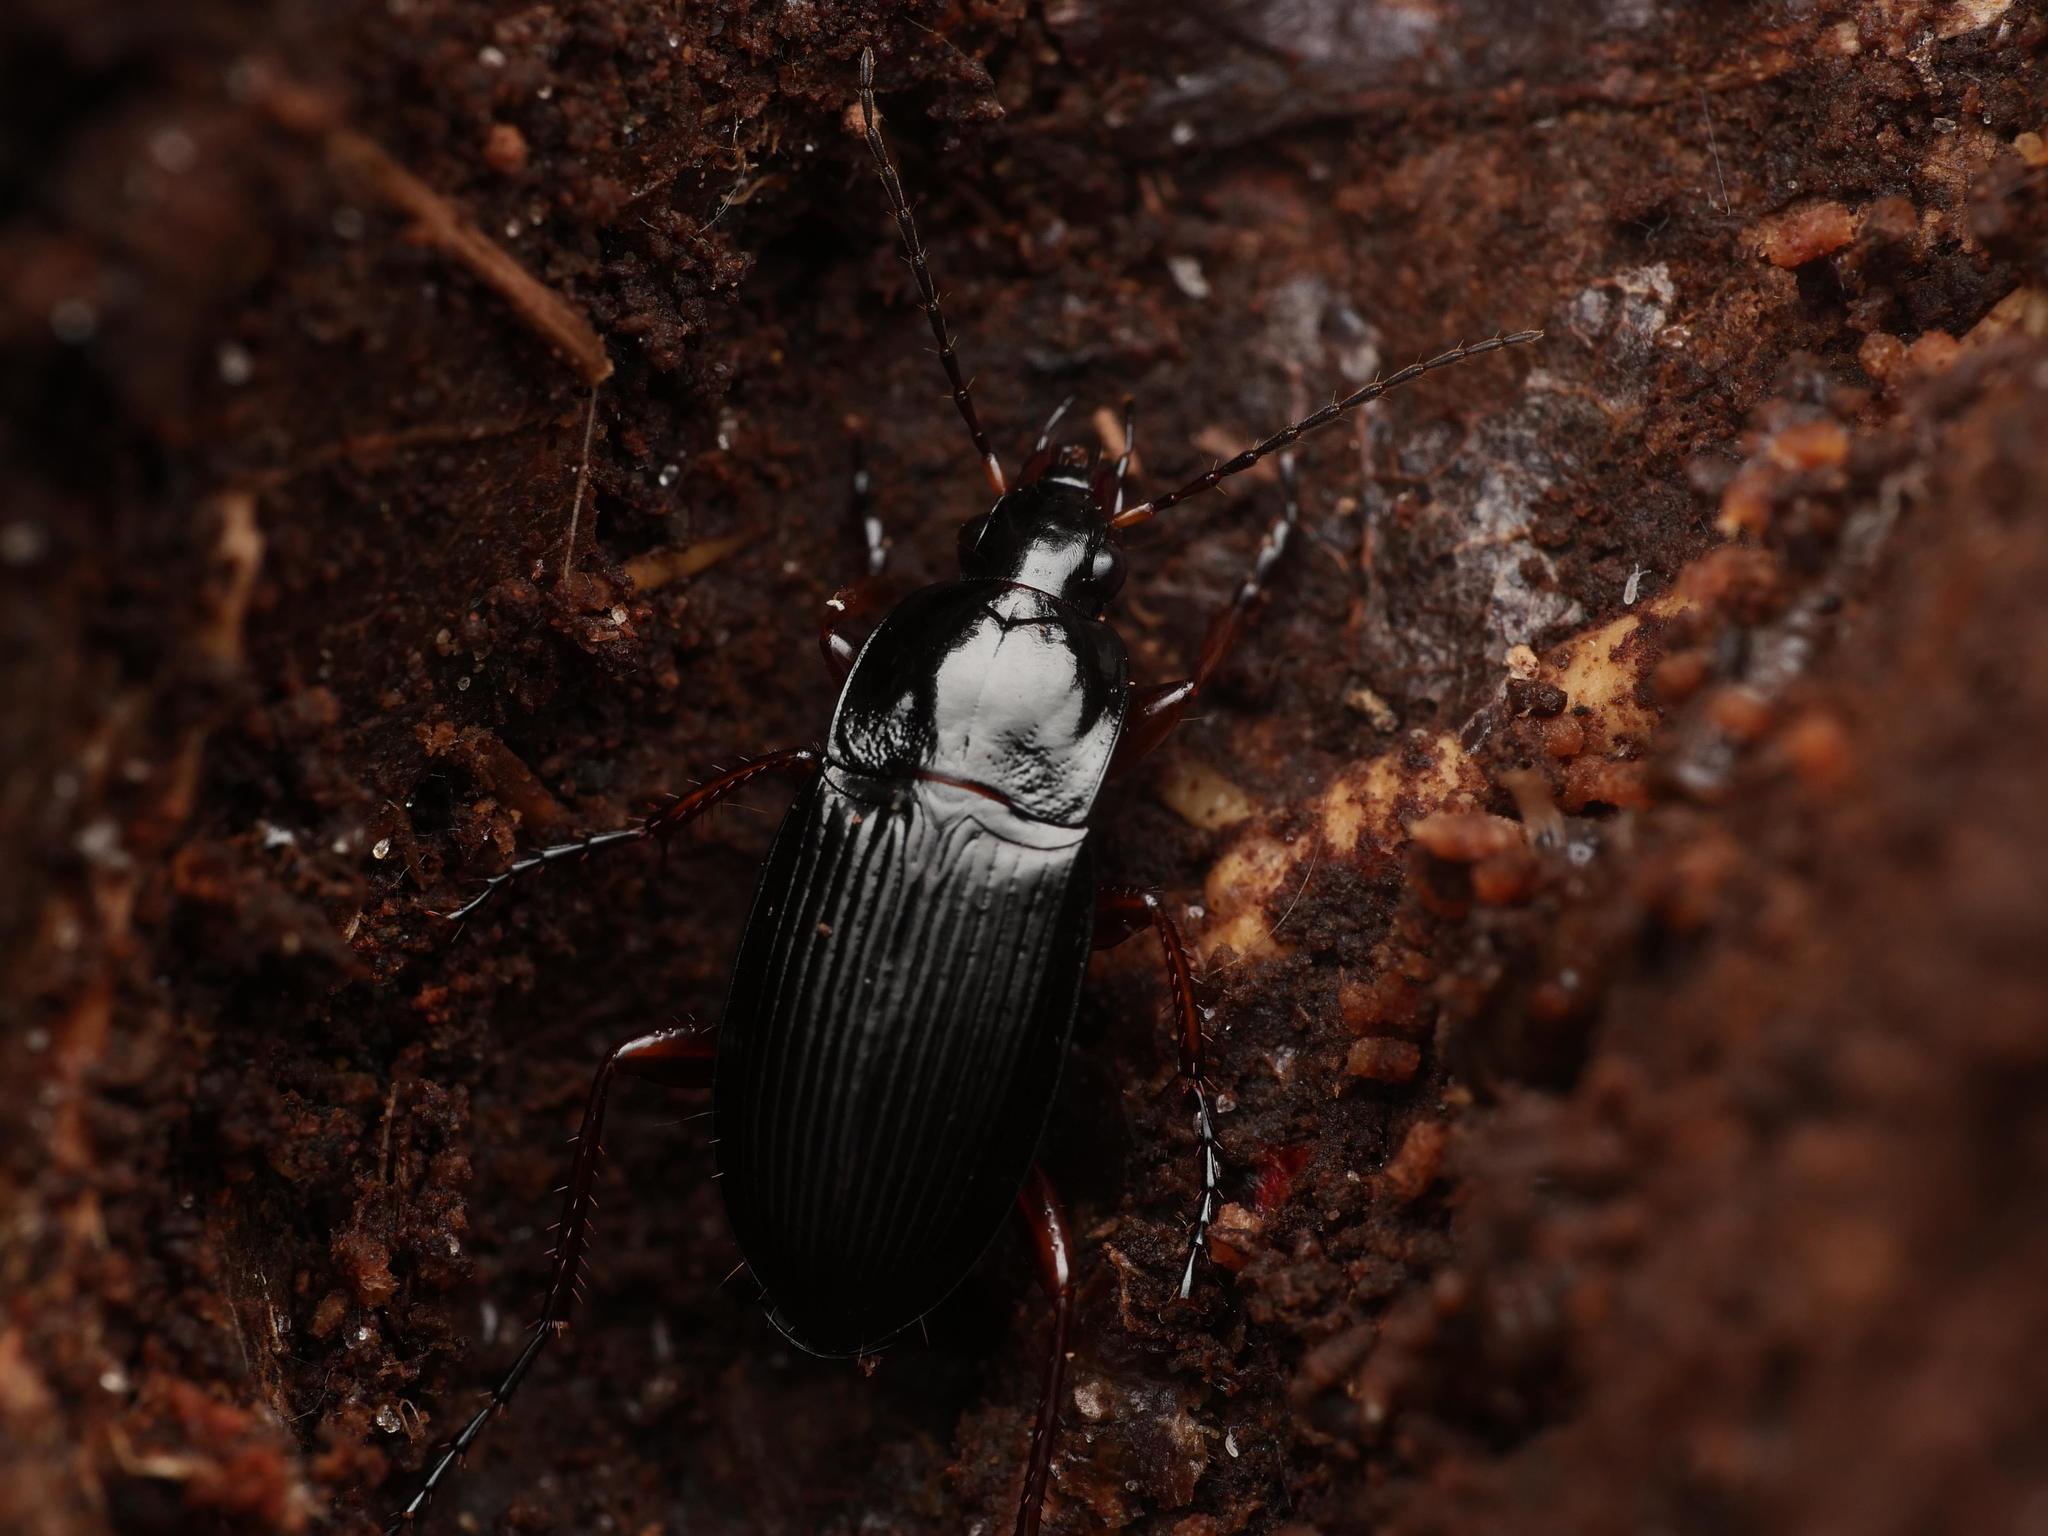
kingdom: Animalia
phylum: Arthropoda
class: Insecta
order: Coleoptera
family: Carabidae
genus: Calathus
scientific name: Calathus fuscipes
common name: Dark-footed harp ground beetle
